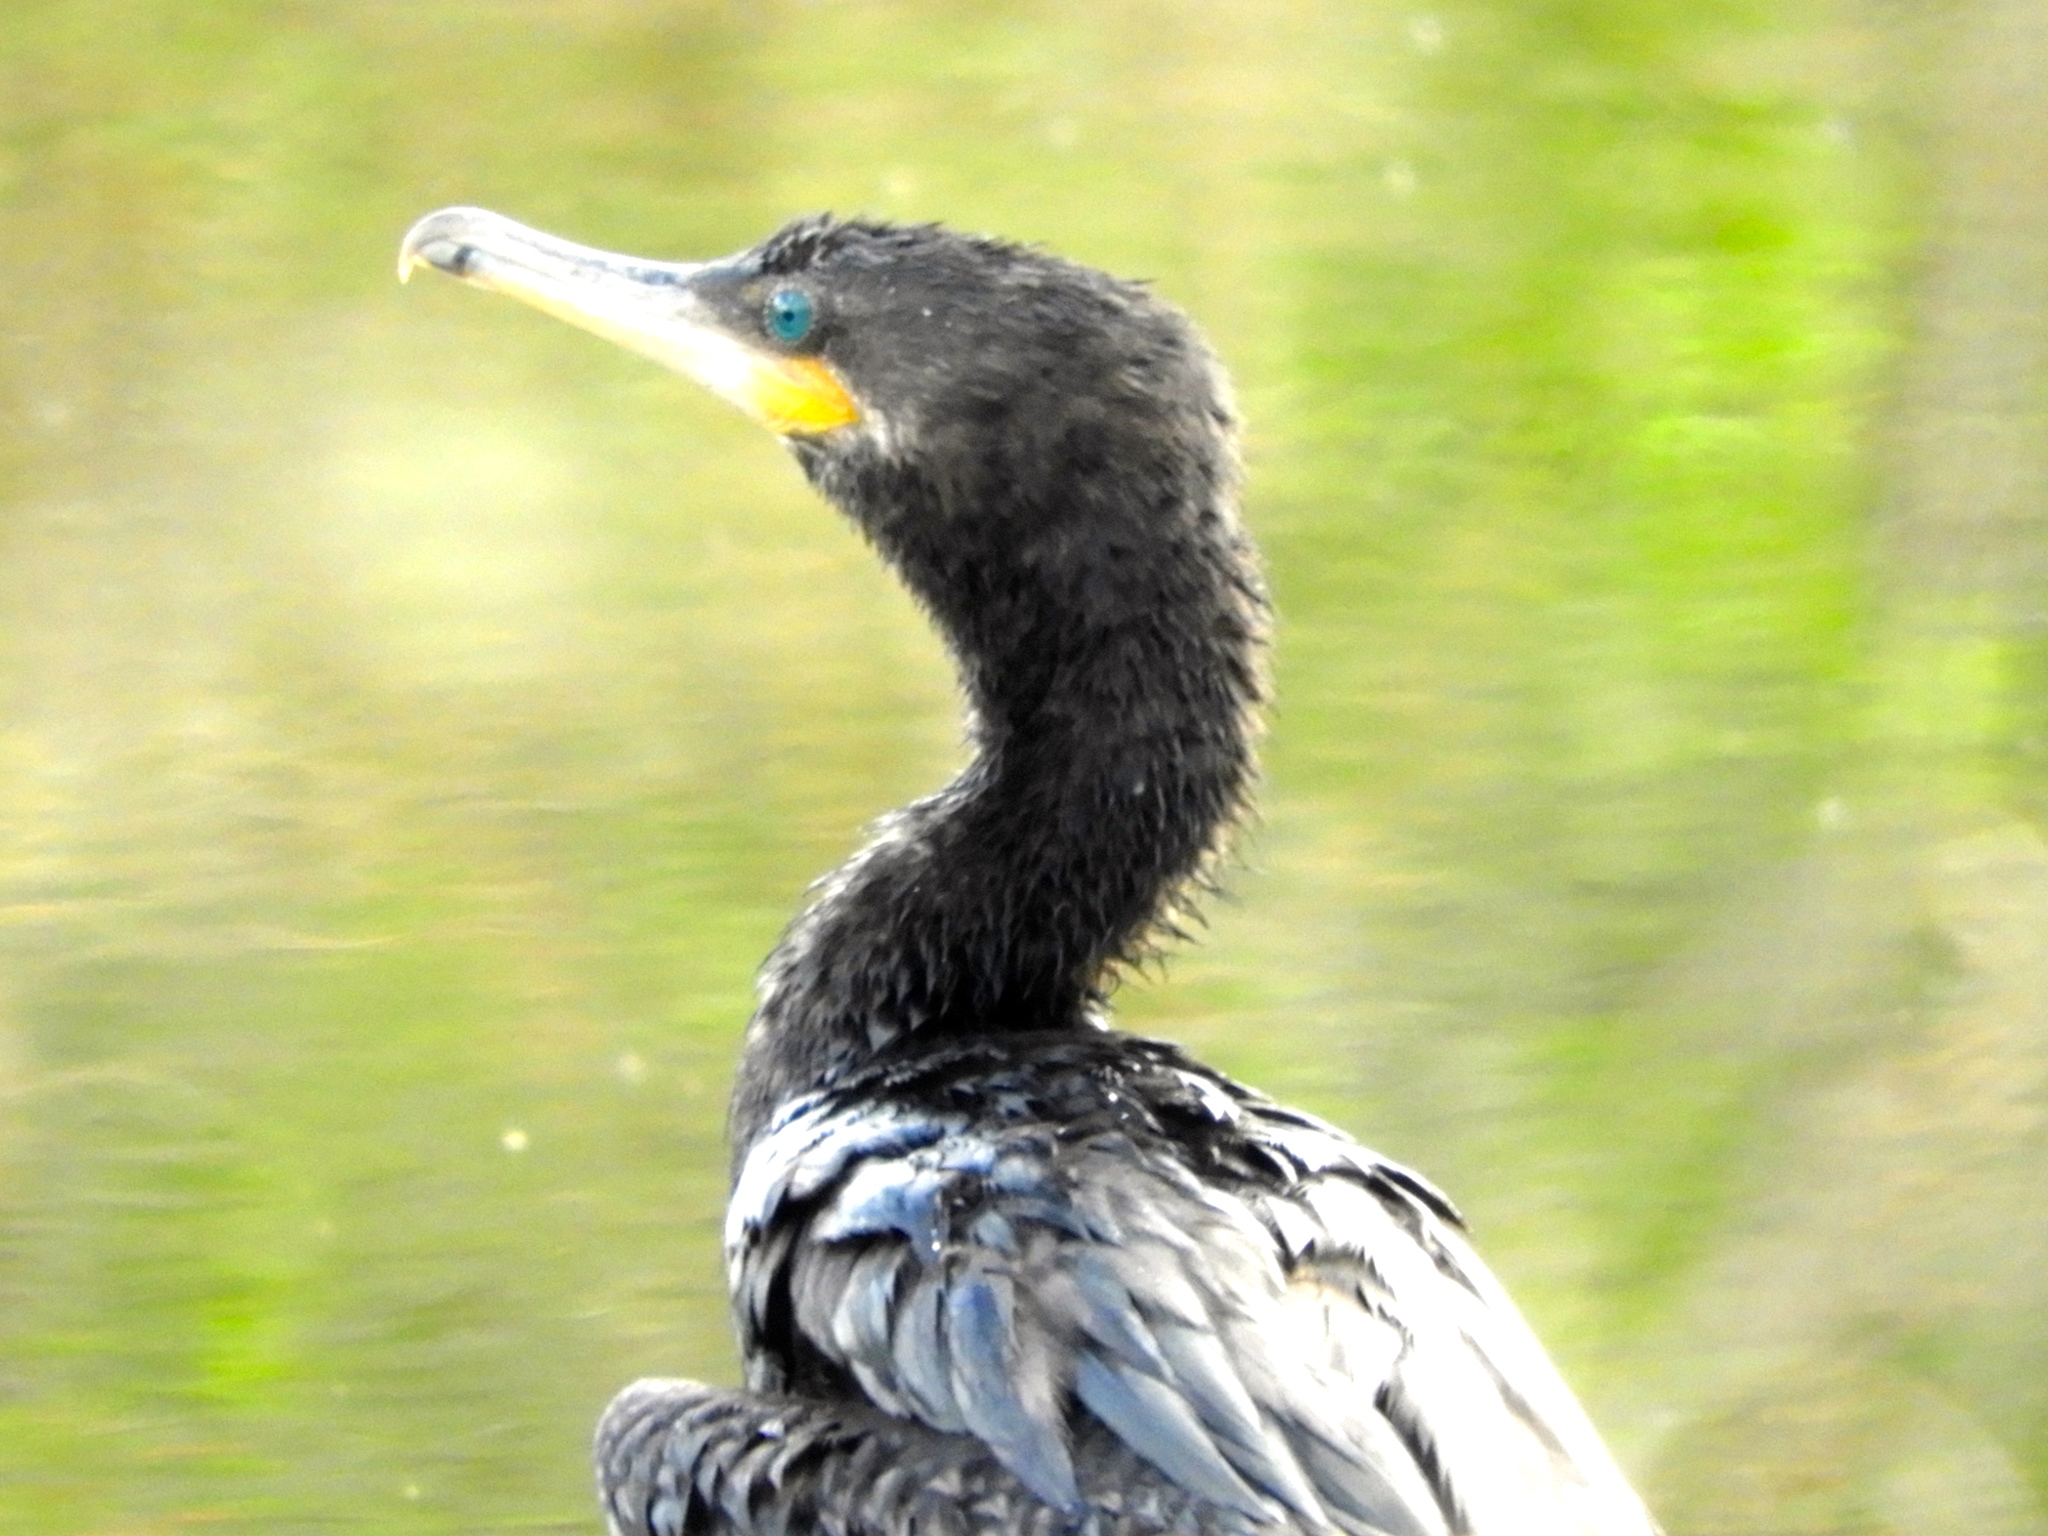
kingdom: Animalia
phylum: Chordata
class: Aves
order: Suliformes
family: Phalacrocoracidae
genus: Phalacrocorax
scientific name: Phalacrocorax brasilianus
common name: Neotropic cormorant
